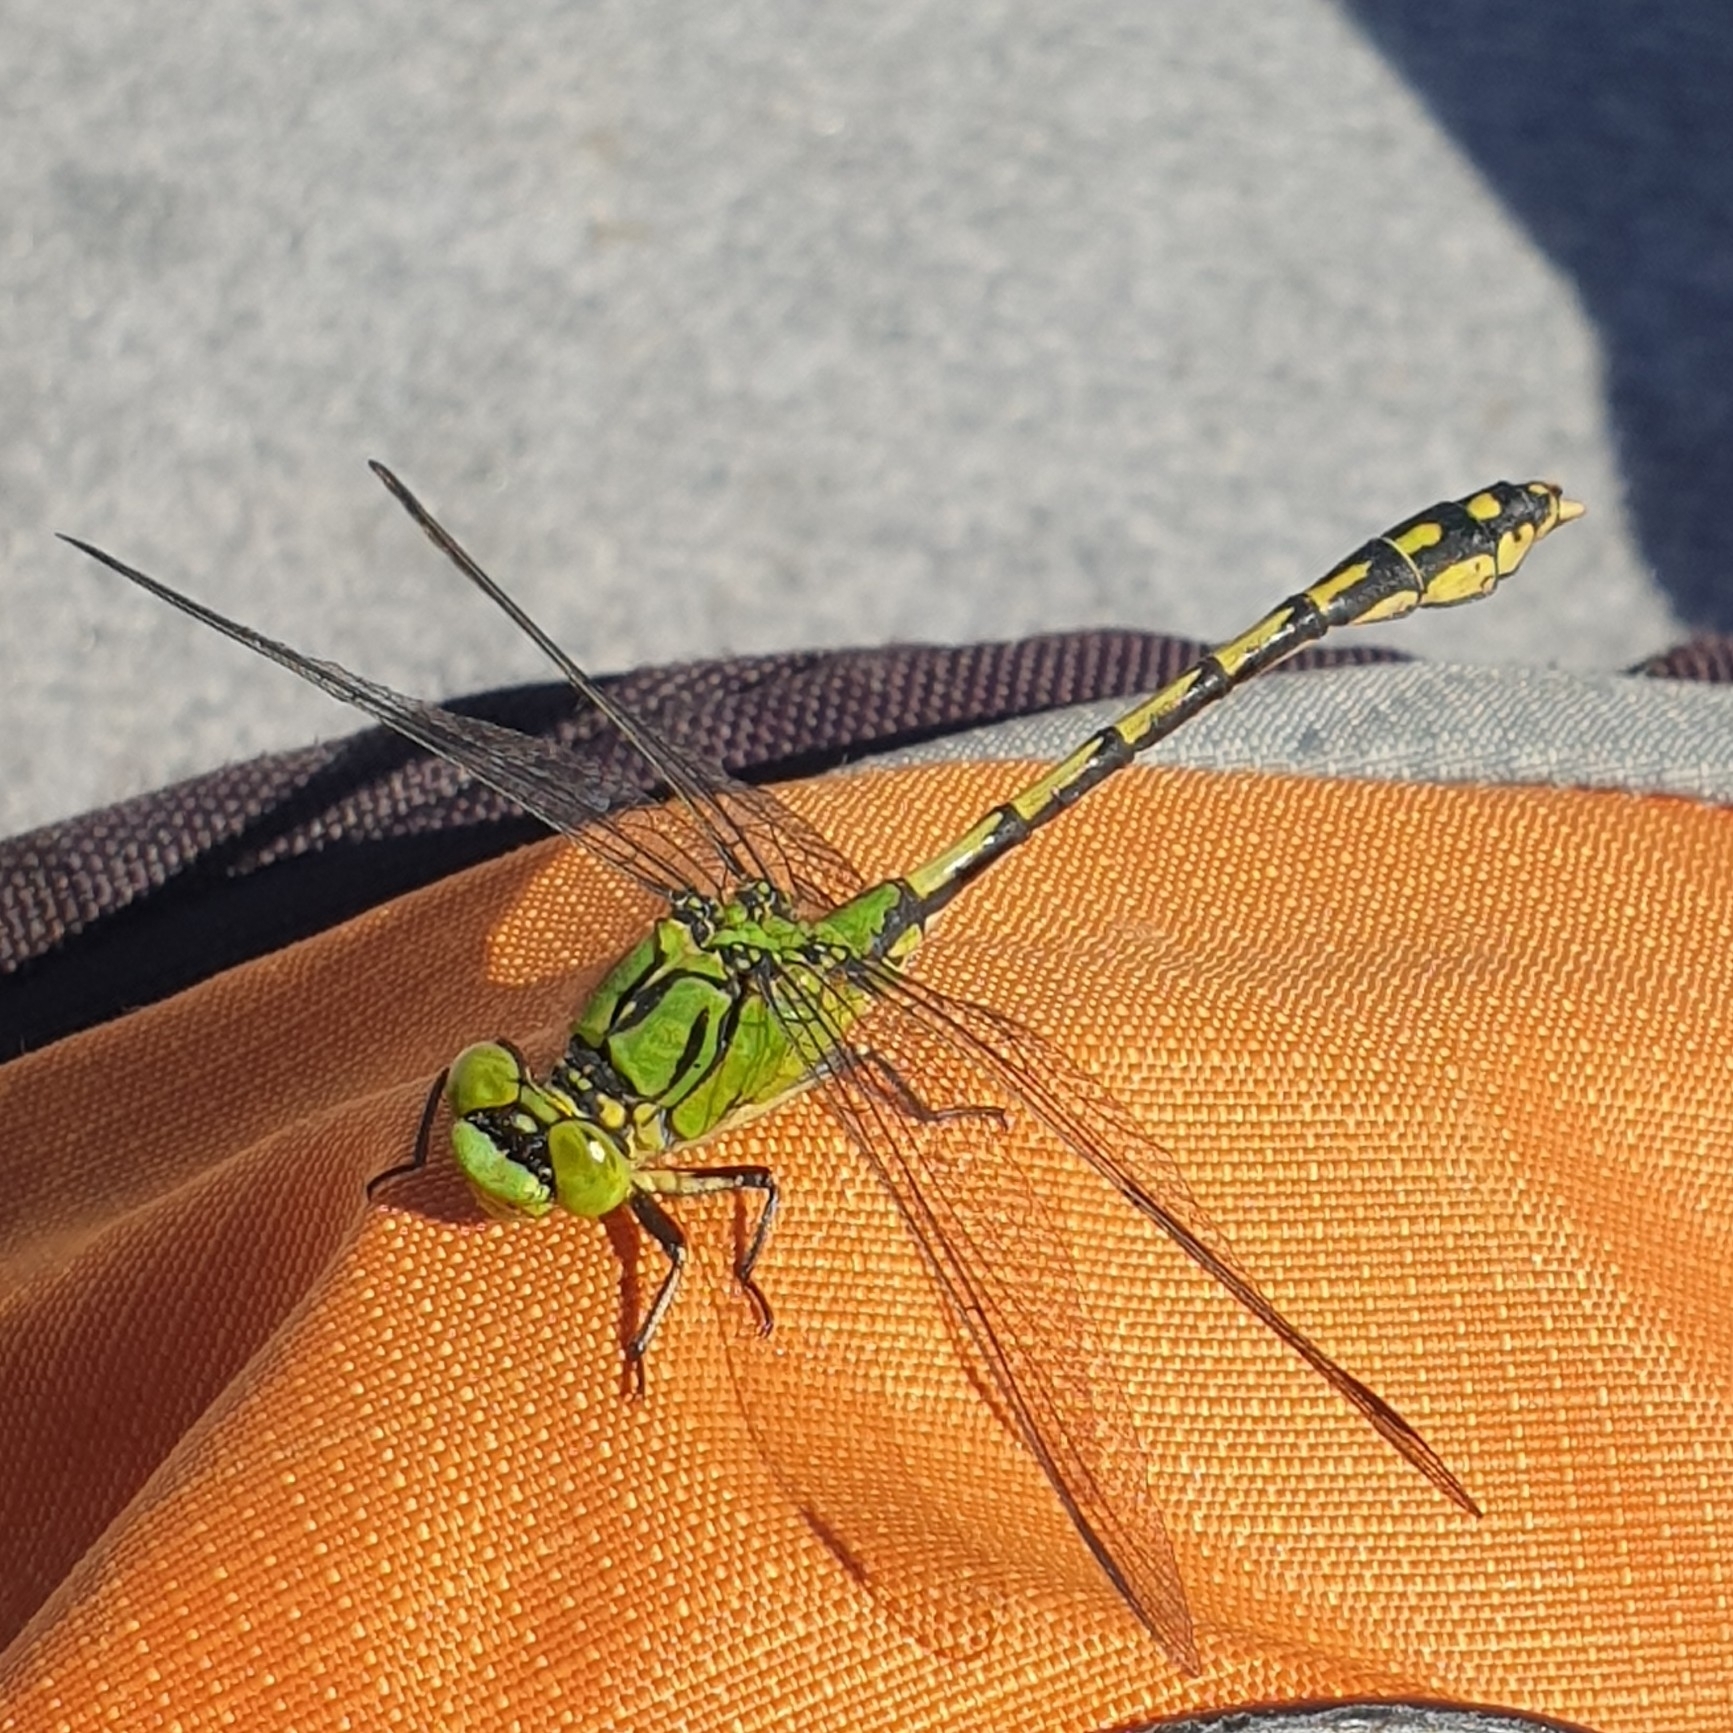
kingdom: Animalia
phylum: Arthropoda
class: Insecta
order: Odonata
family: Gomphidae
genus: Ophiogomphus
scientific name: Ophiogomphus cecilia
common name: Green snaketail
